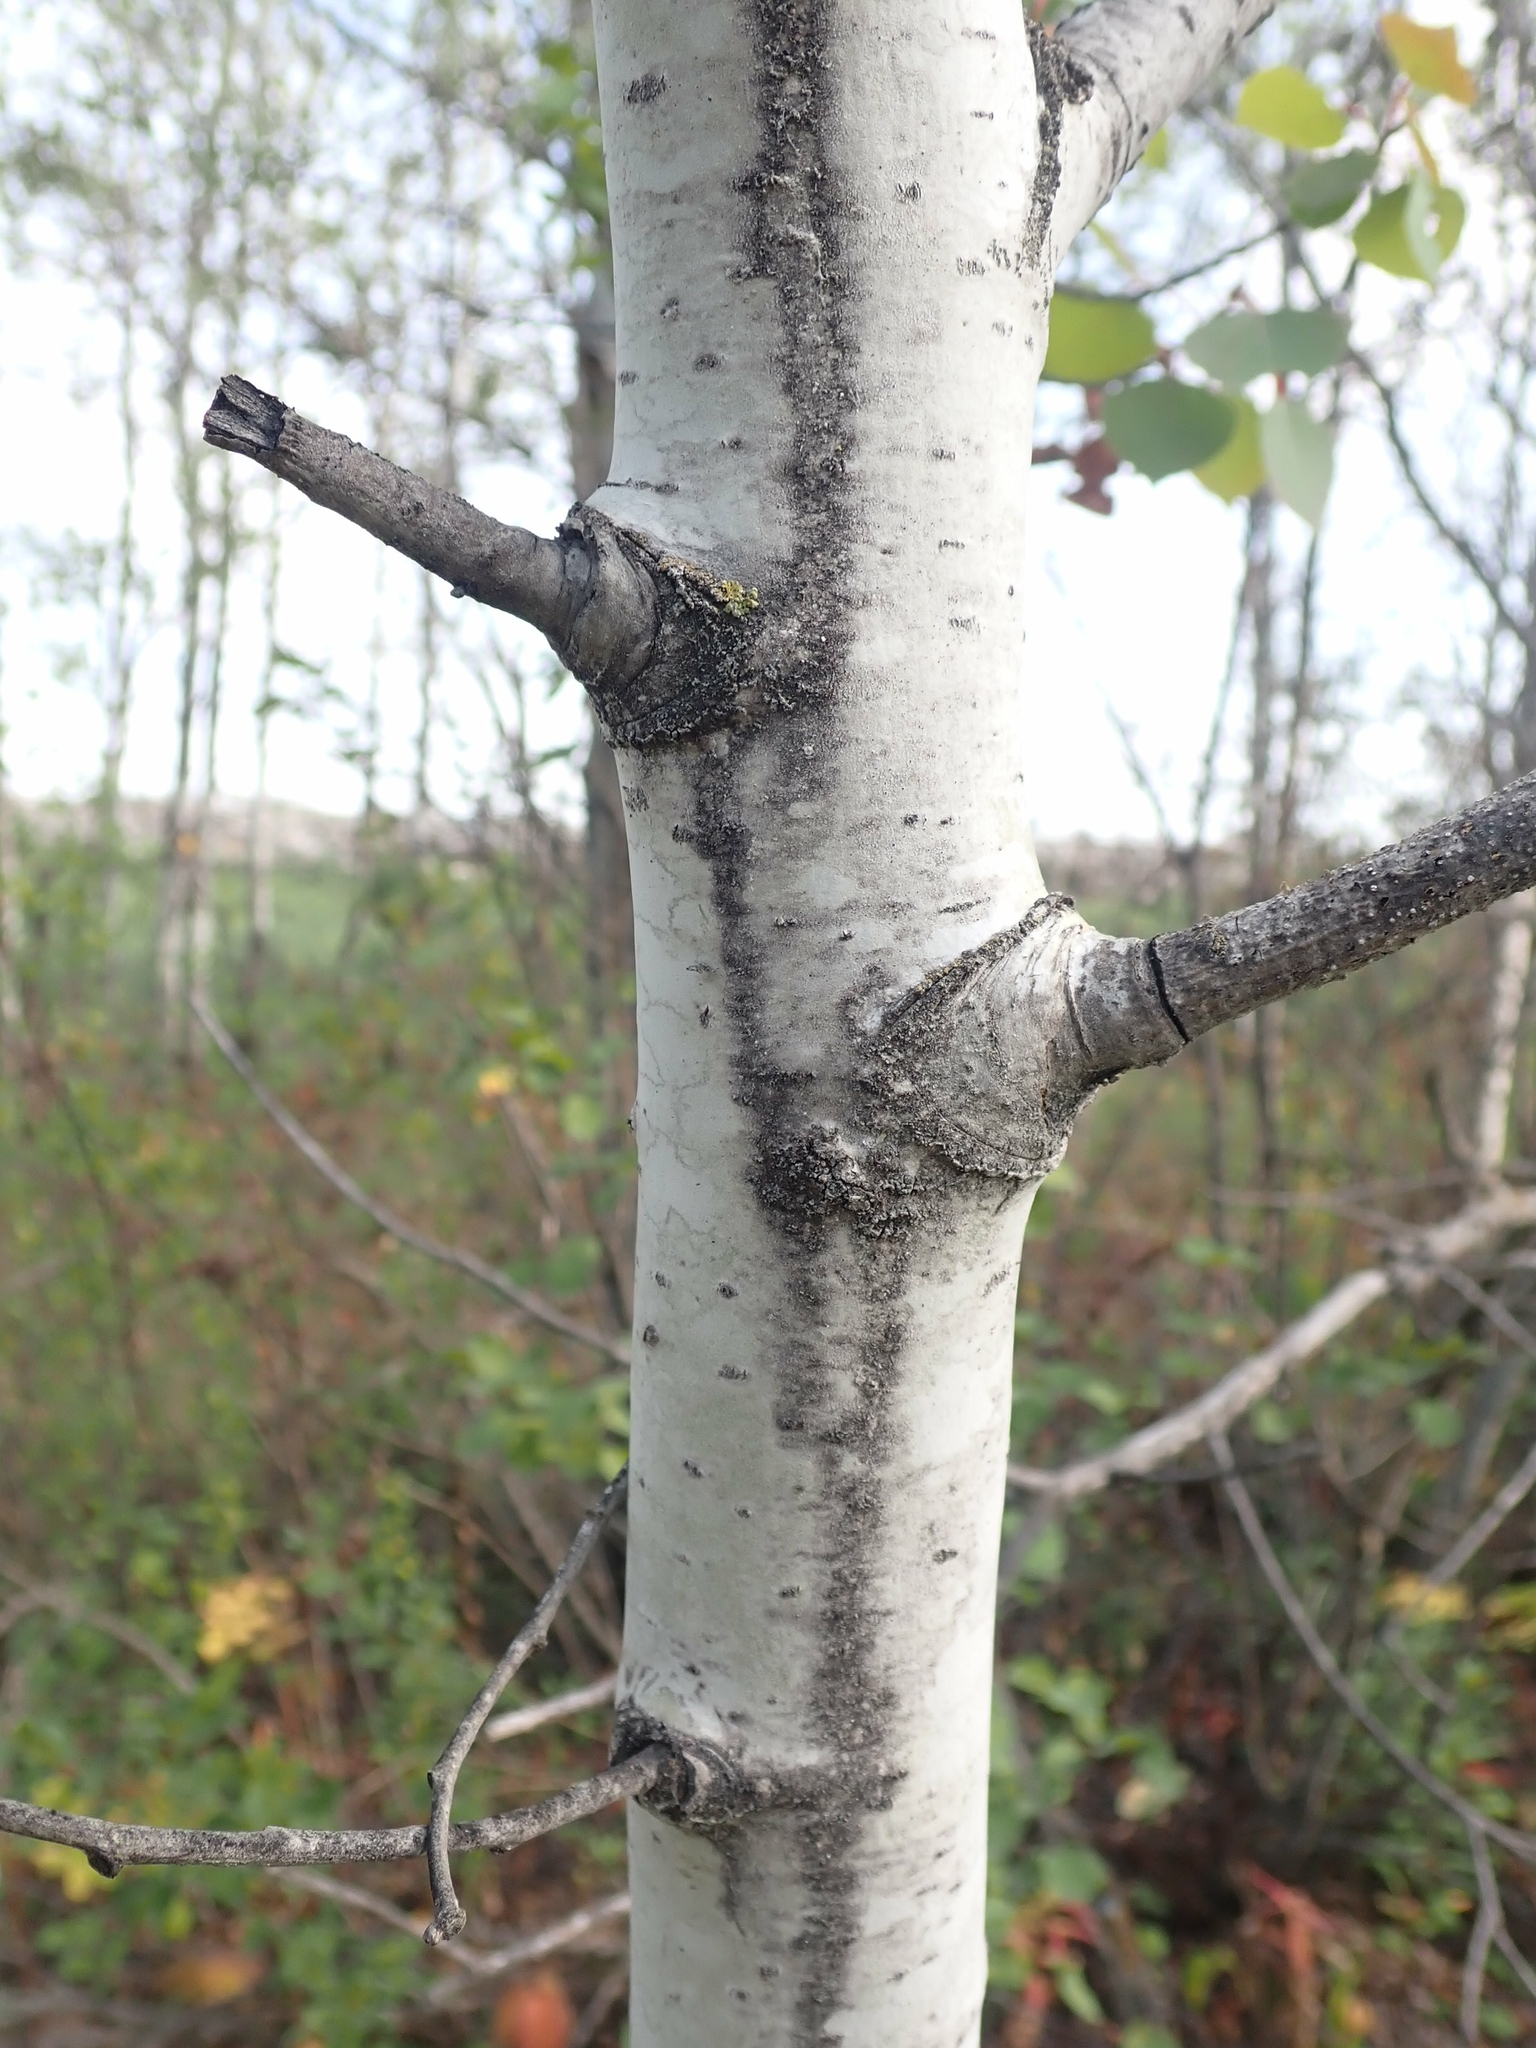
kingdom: Plantae
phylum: Tracheophyta
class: Magnoliopsida
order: Malpighiales
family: Salicaceae
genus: Populus
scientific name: Populus tremuloides
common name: Quaking aspen
